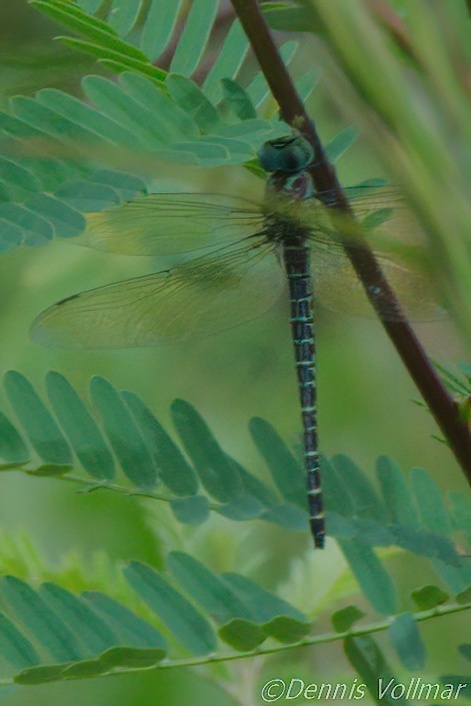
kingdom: Animalia
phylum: Arthropoda
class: Insecta
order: Odonata
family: Aeshnidae
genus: Coryphaeschna
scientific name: Coryphaeschna ingens
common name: Regal darner
